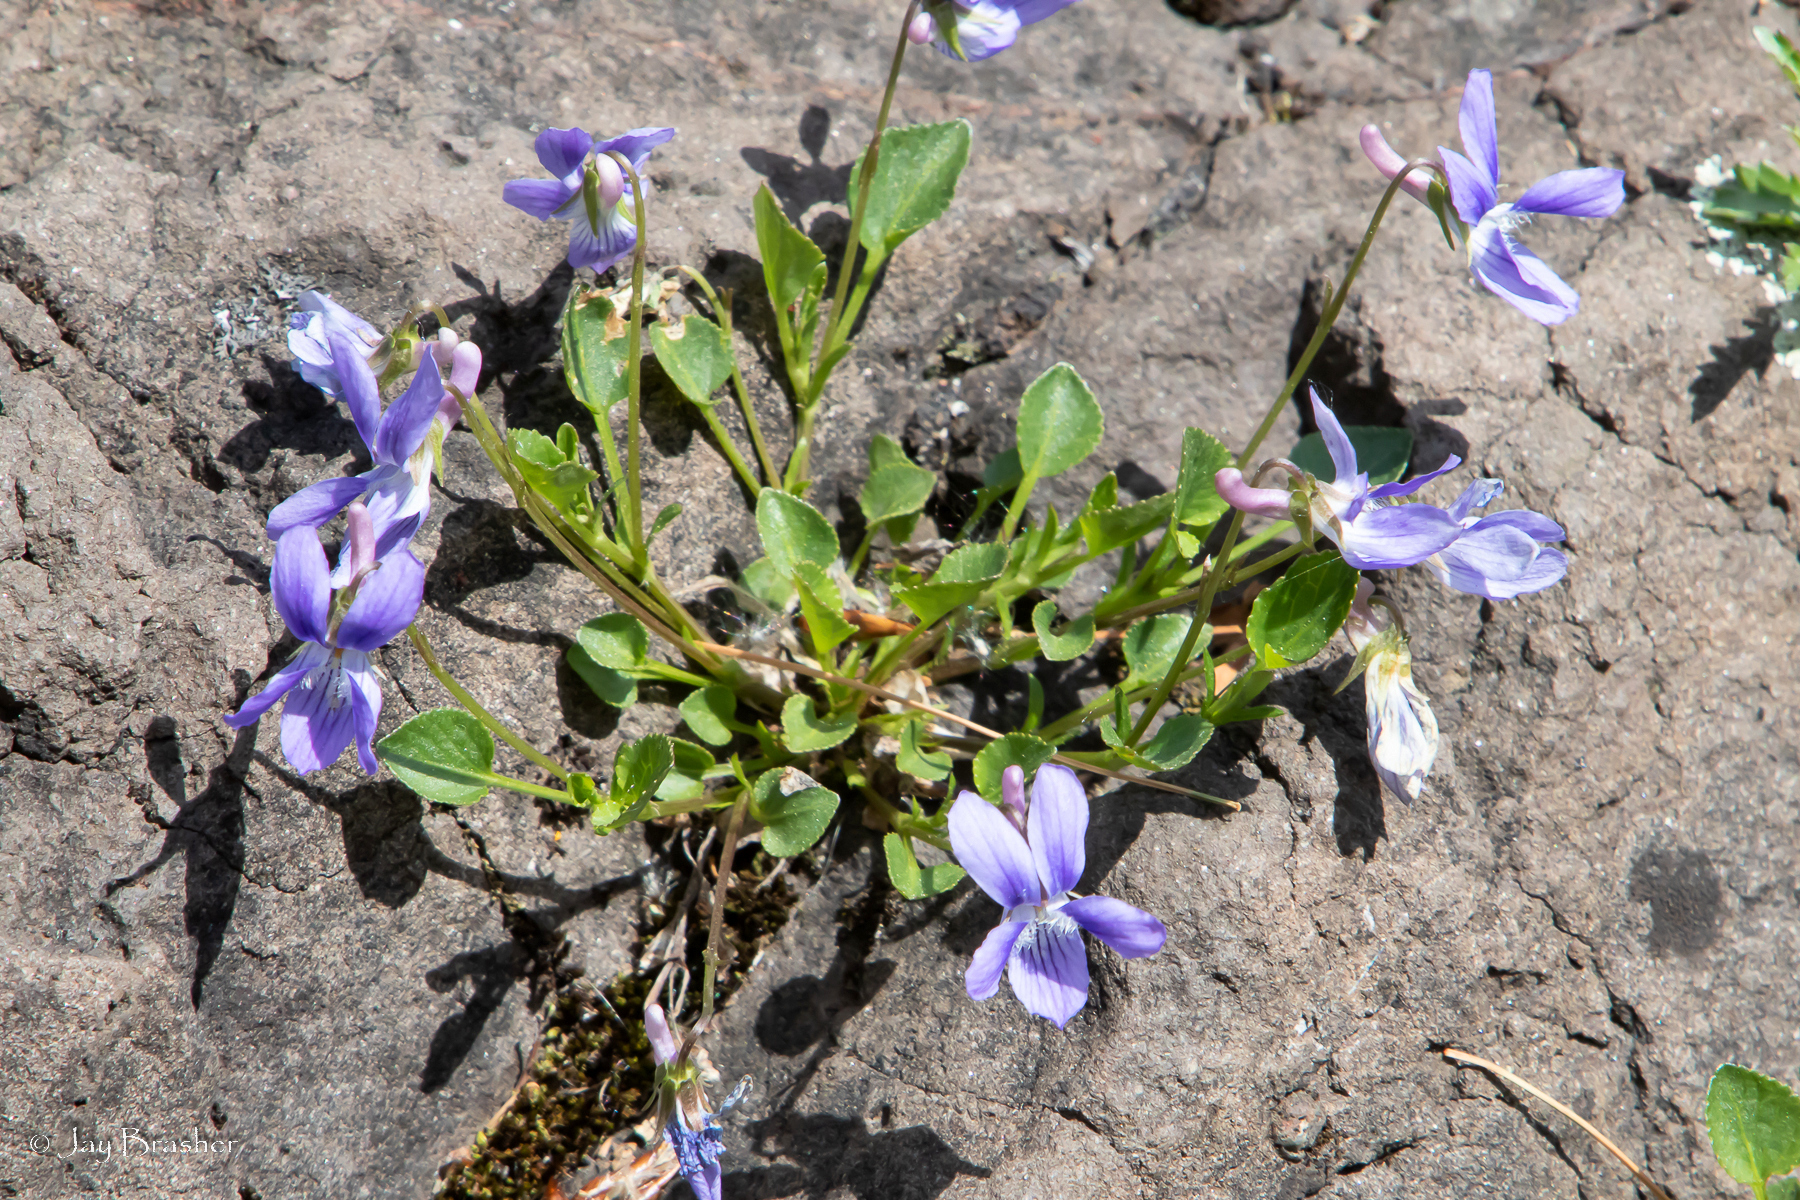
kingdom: Plantae
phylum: Tracheophyta
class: Magnoliopsida
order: Malpighiales
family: Violaceae
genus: Viola
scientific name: Viola adunca
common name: Sand violet
